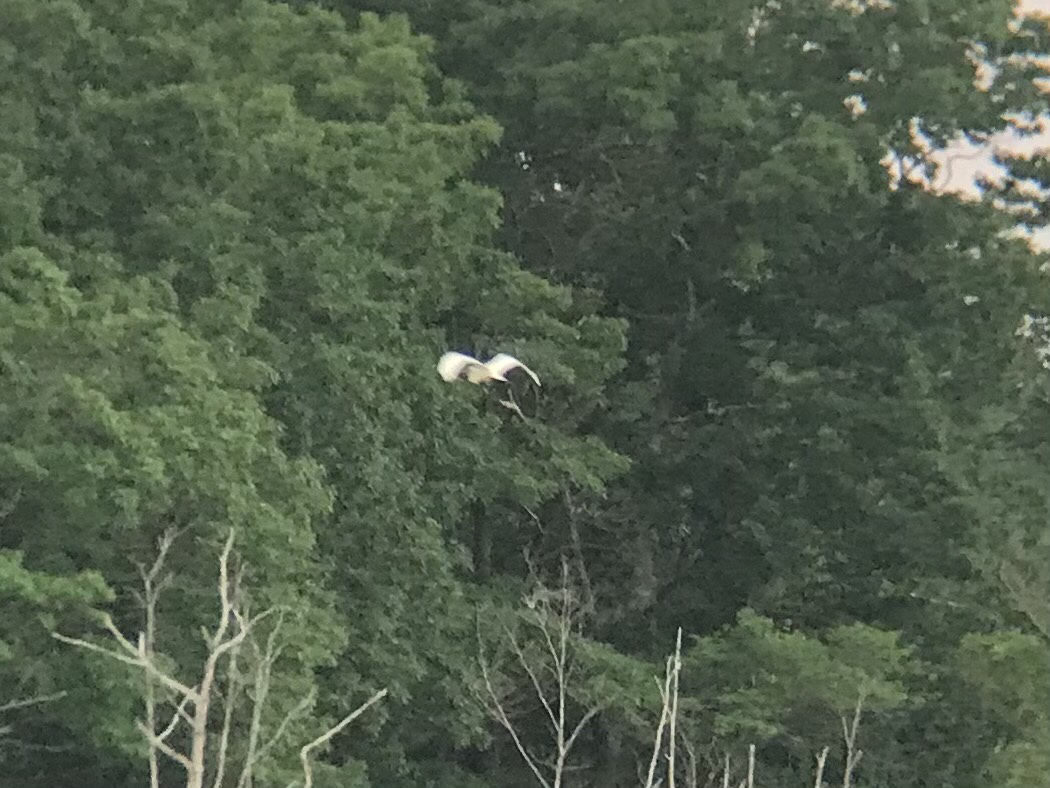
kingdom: Animalia
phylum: Chordata
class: Aves
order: Pelecaniformes
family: Ardeidae
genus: Ardea
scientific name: Ardea alba
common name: Great egret
